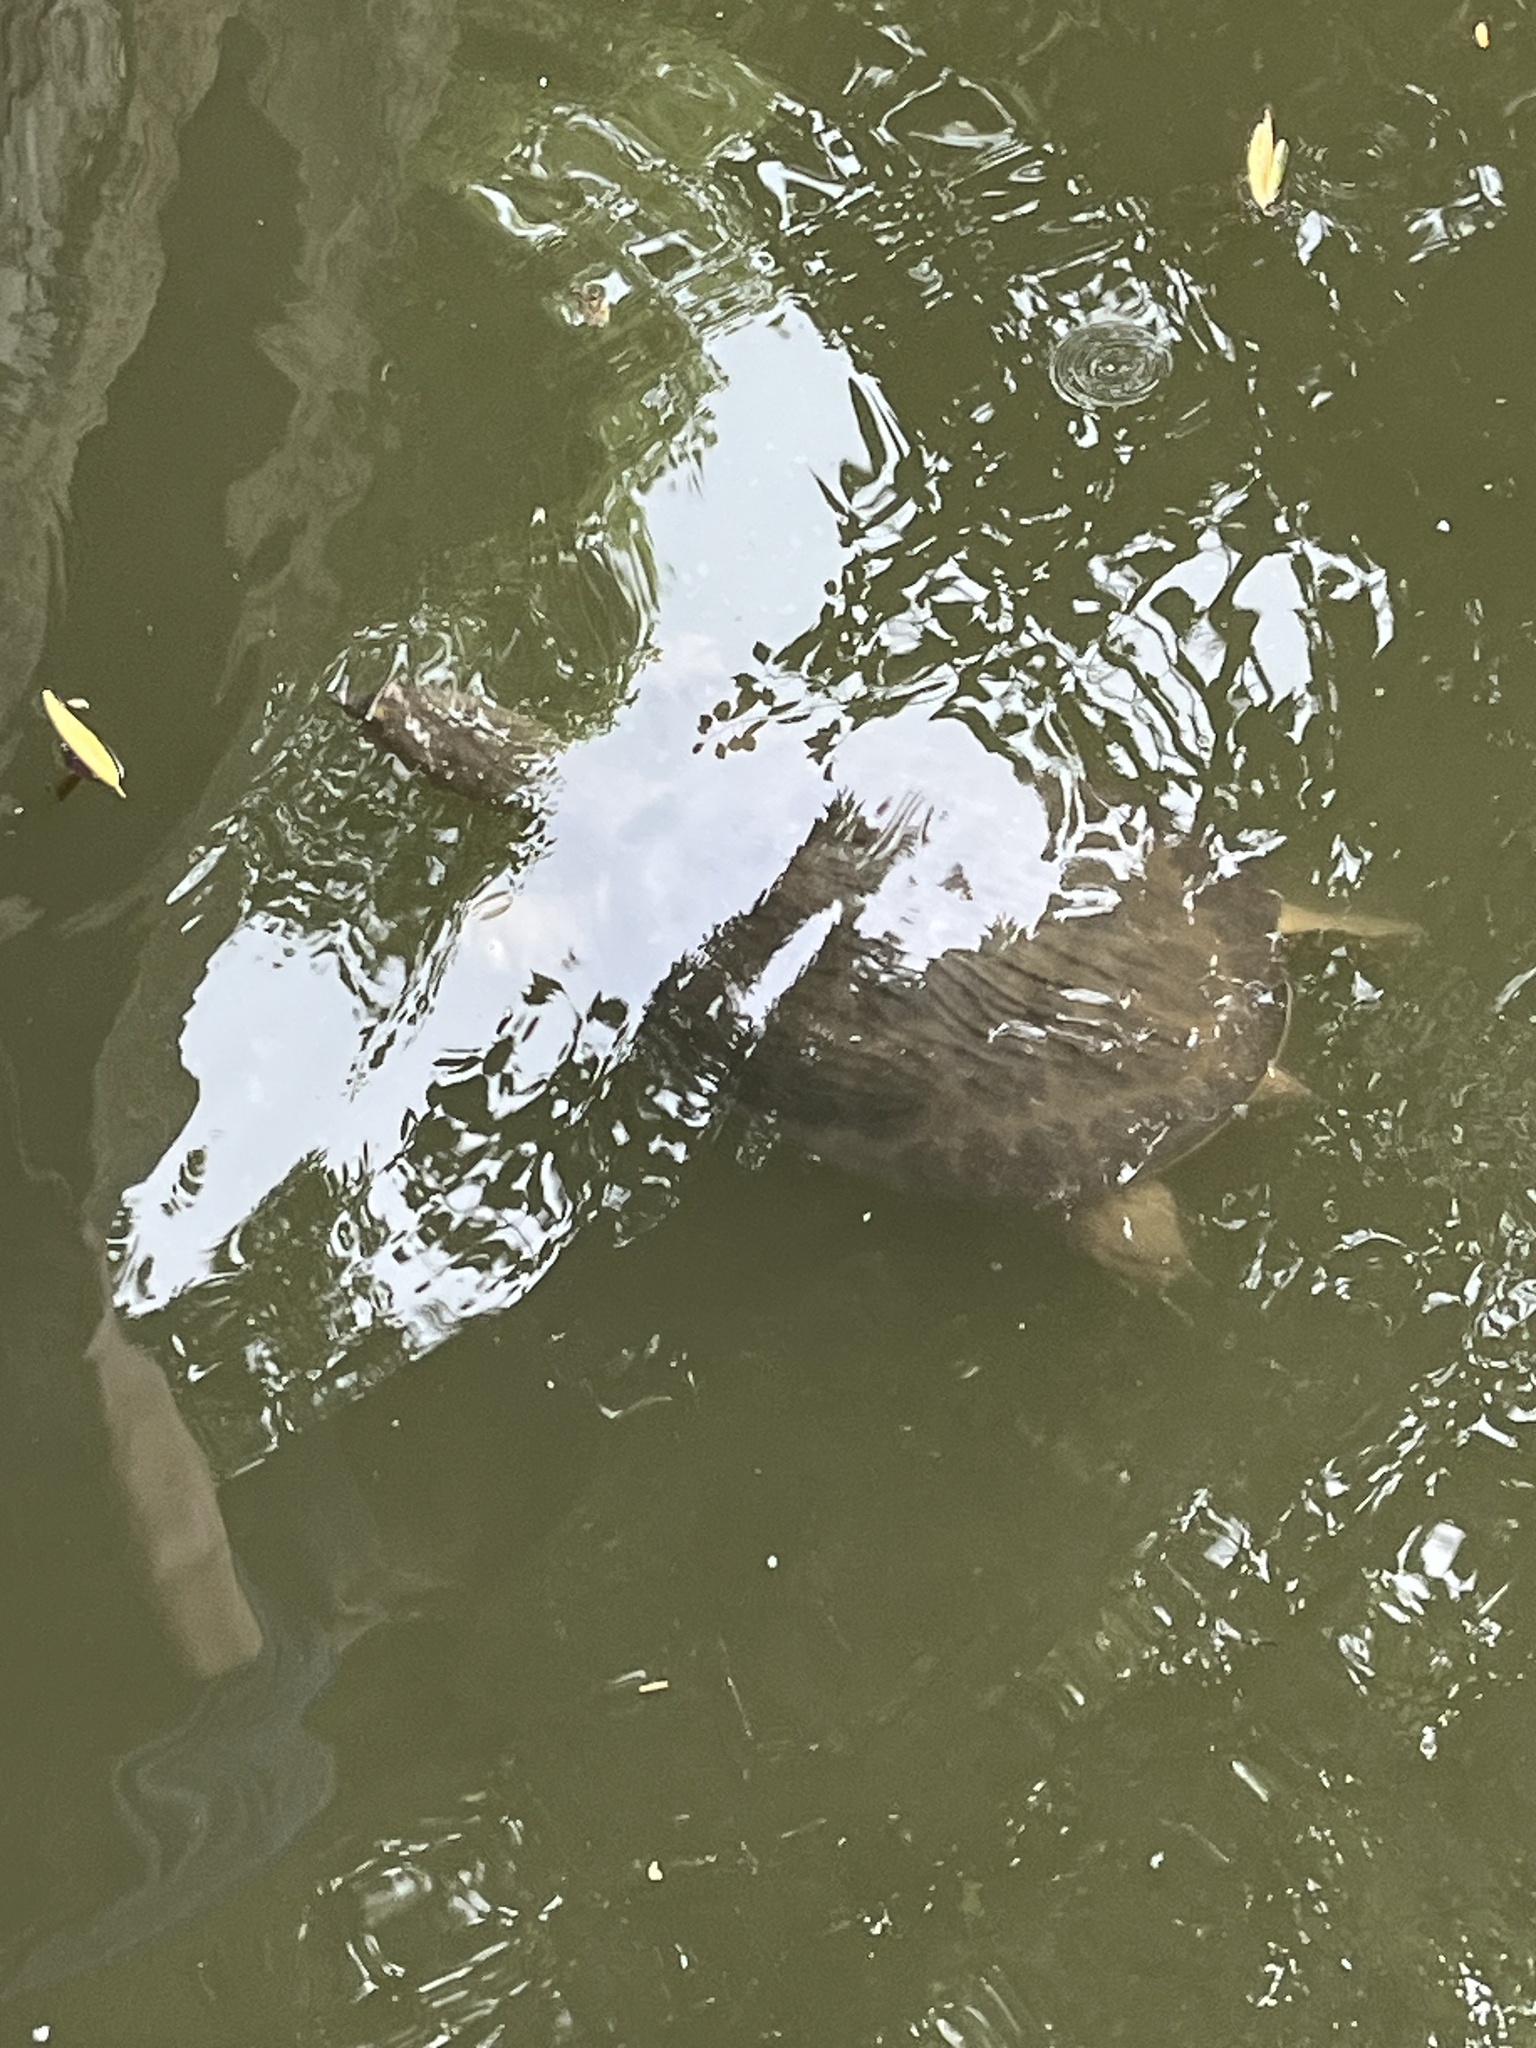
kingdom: Animalia
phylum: Chordata
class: Testudines
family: Trionychidae
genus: Pelodiscus
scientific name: Pelodiscus sinensis
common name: Chinese softshell turtle
